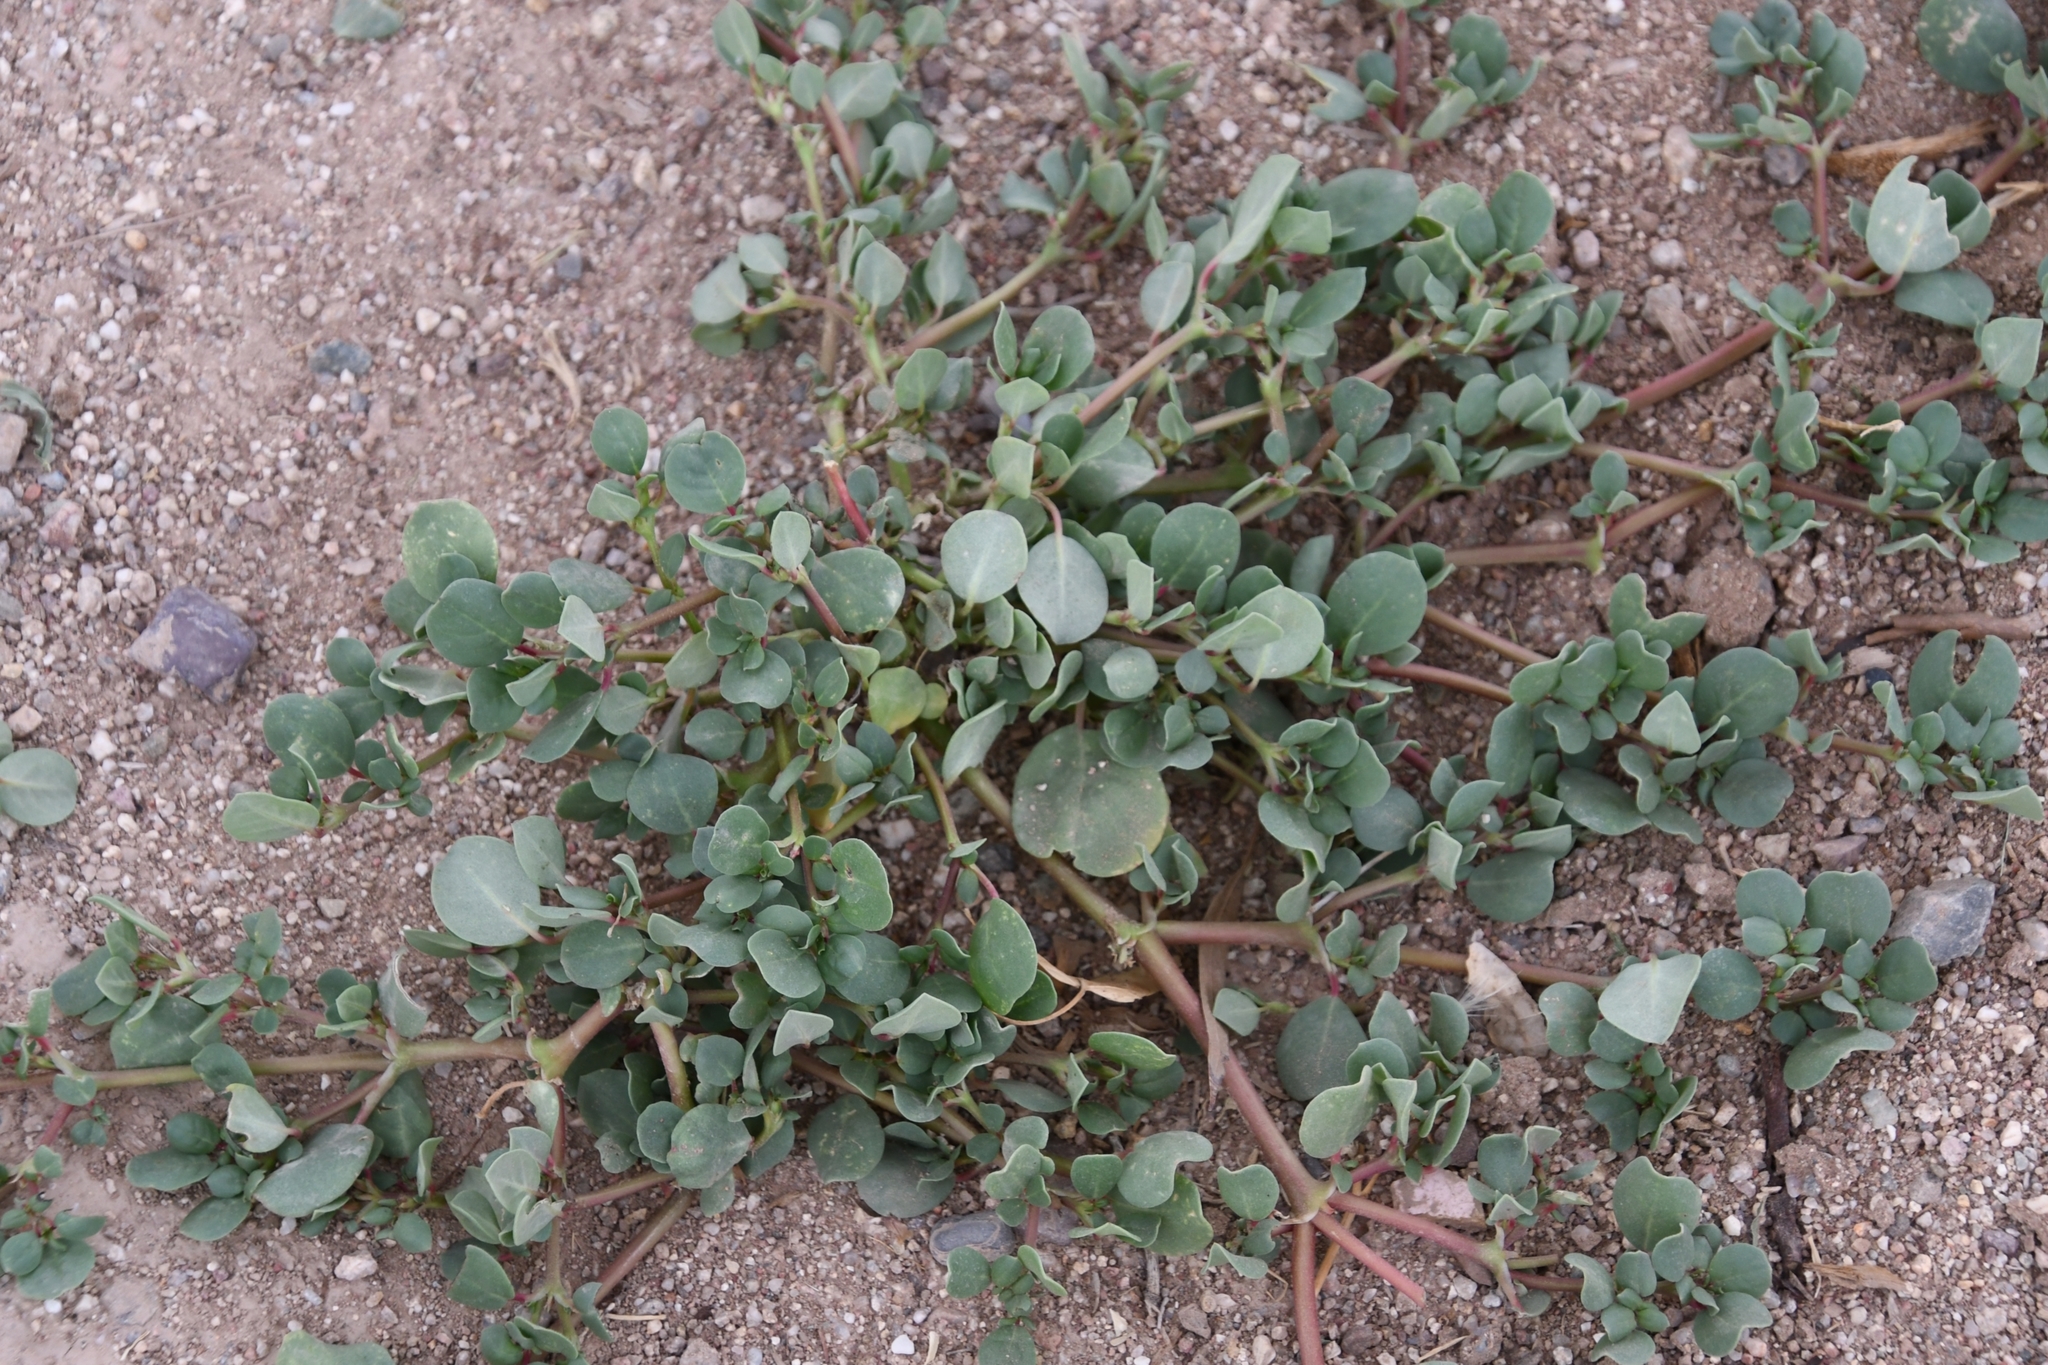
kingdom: Plantae
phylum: Tracheophyta
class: Magnoliopsida
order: Caryophyllales
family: Aizoaceae
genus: Trianthema
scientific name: Trianthema portulacastrum
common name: Desert horsepurslane
